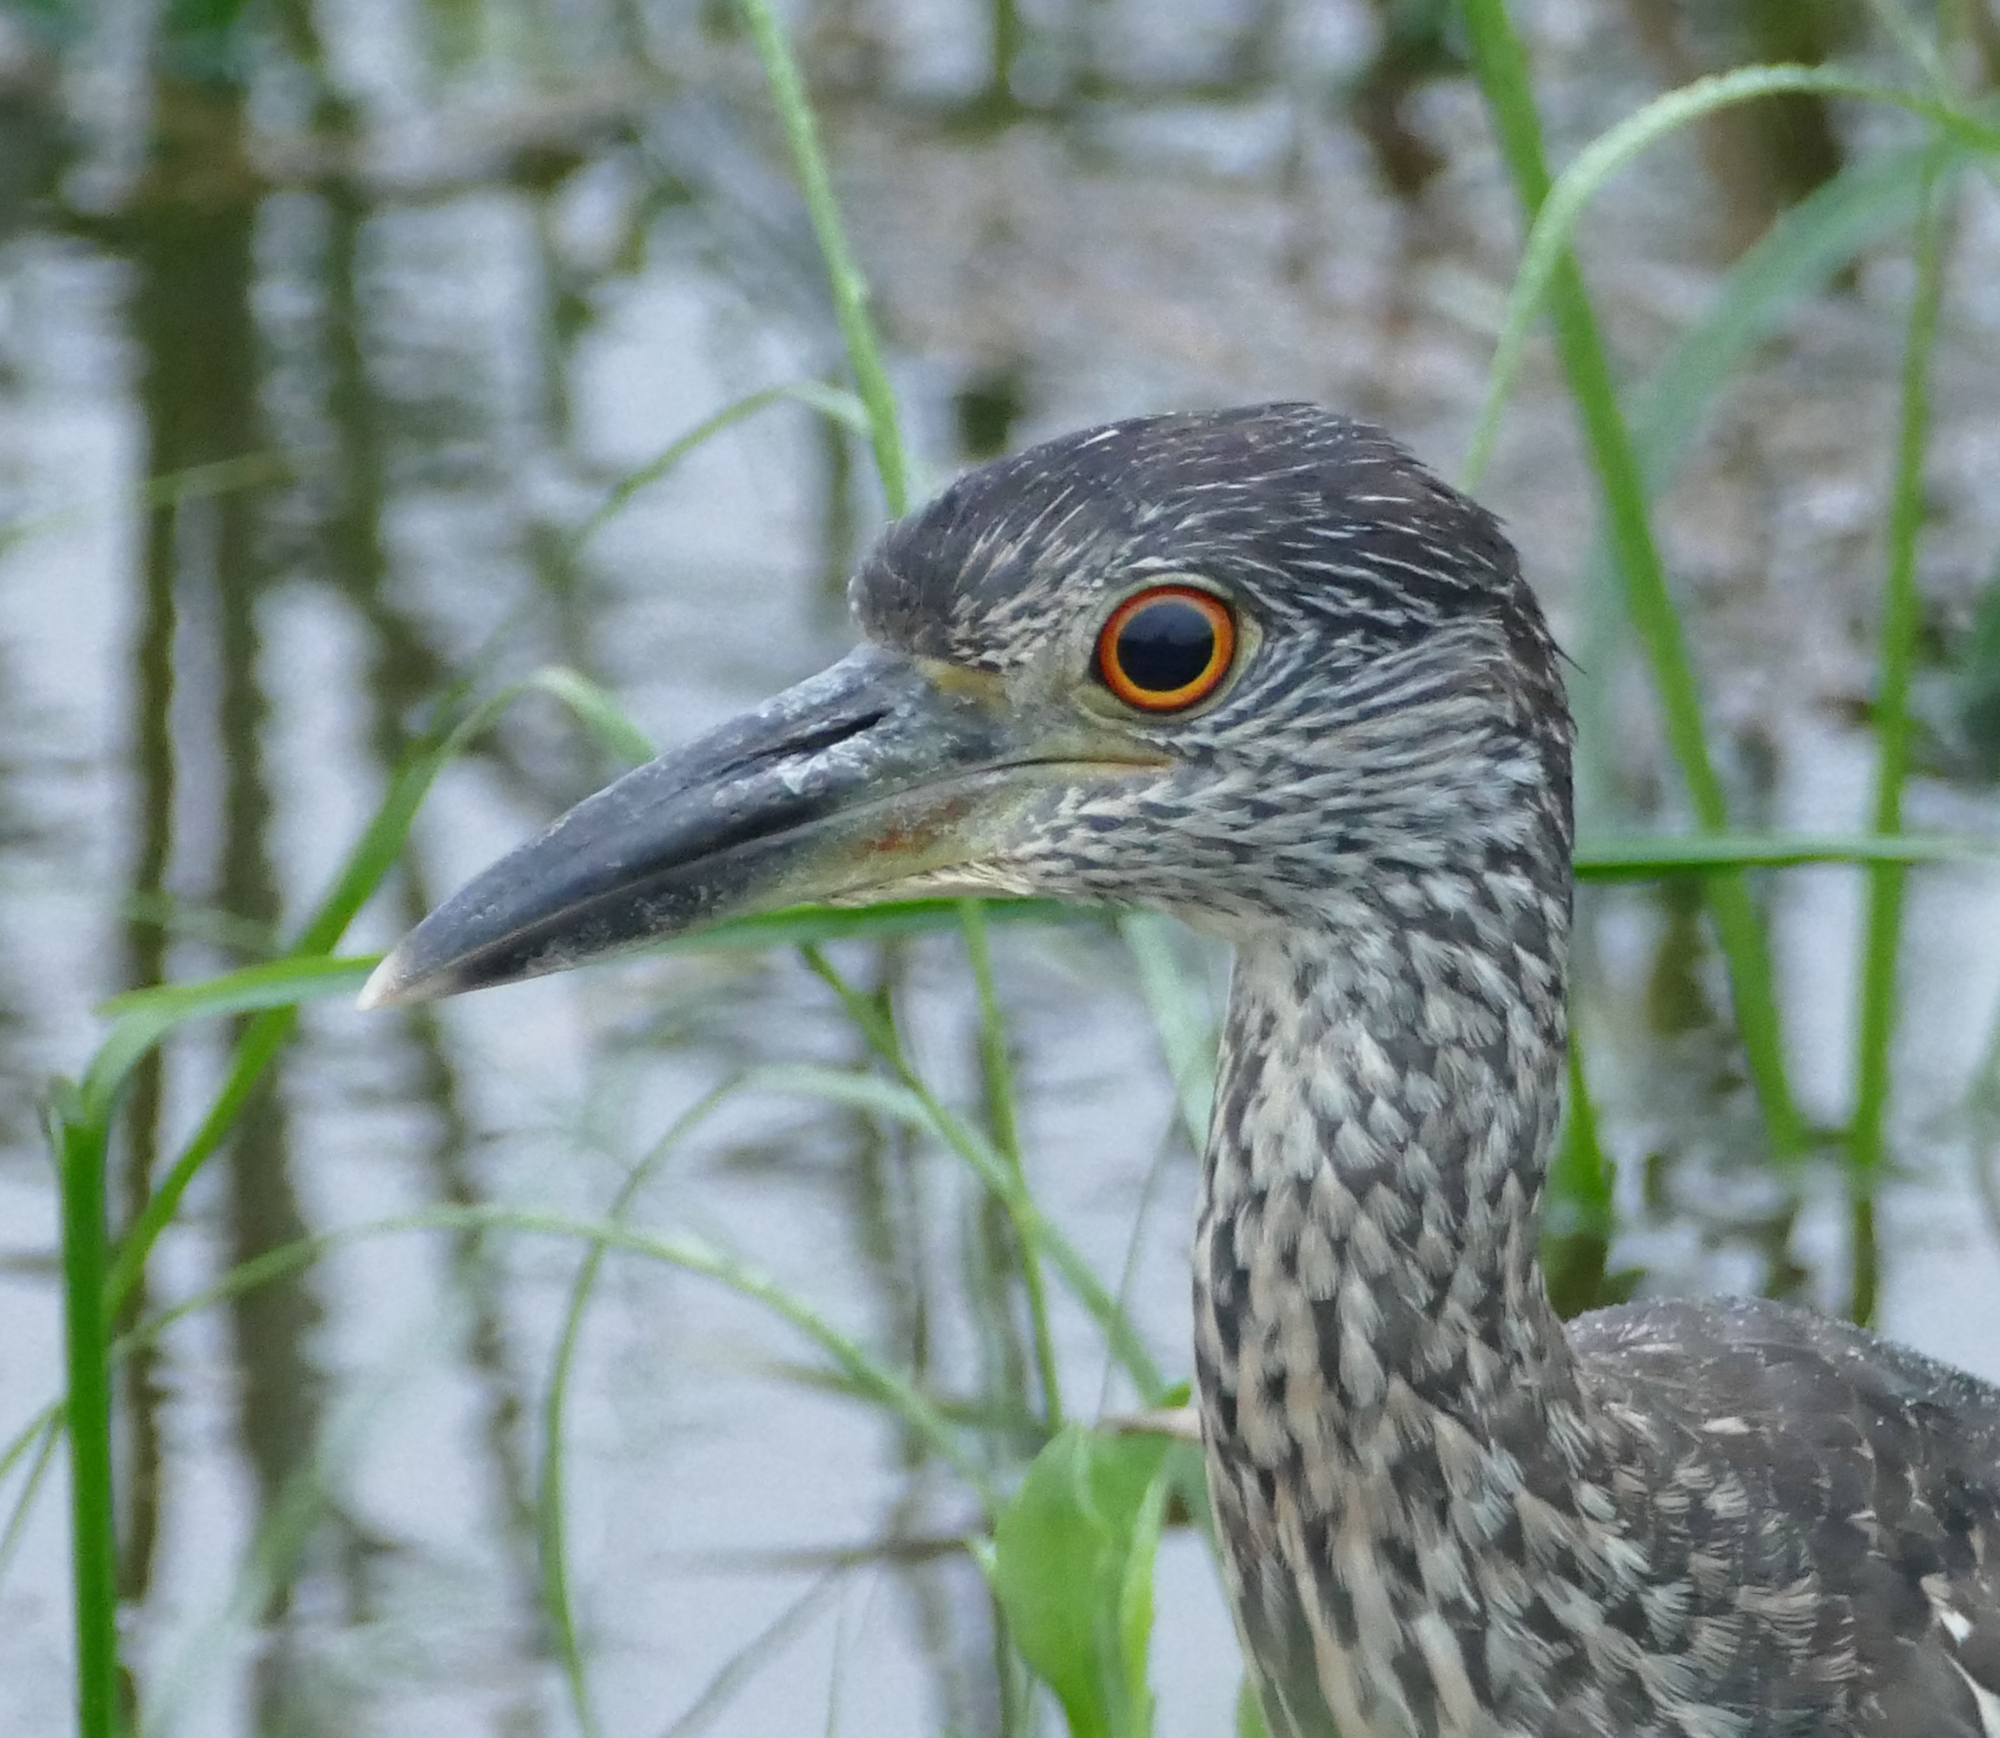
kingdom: Animalia
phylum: Chordata
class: Aves
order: Pelecaniformes
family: Ardeidae
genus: Nyctanassa
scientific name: Nyctanassa violacea
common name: Yellow-crowned night heron
